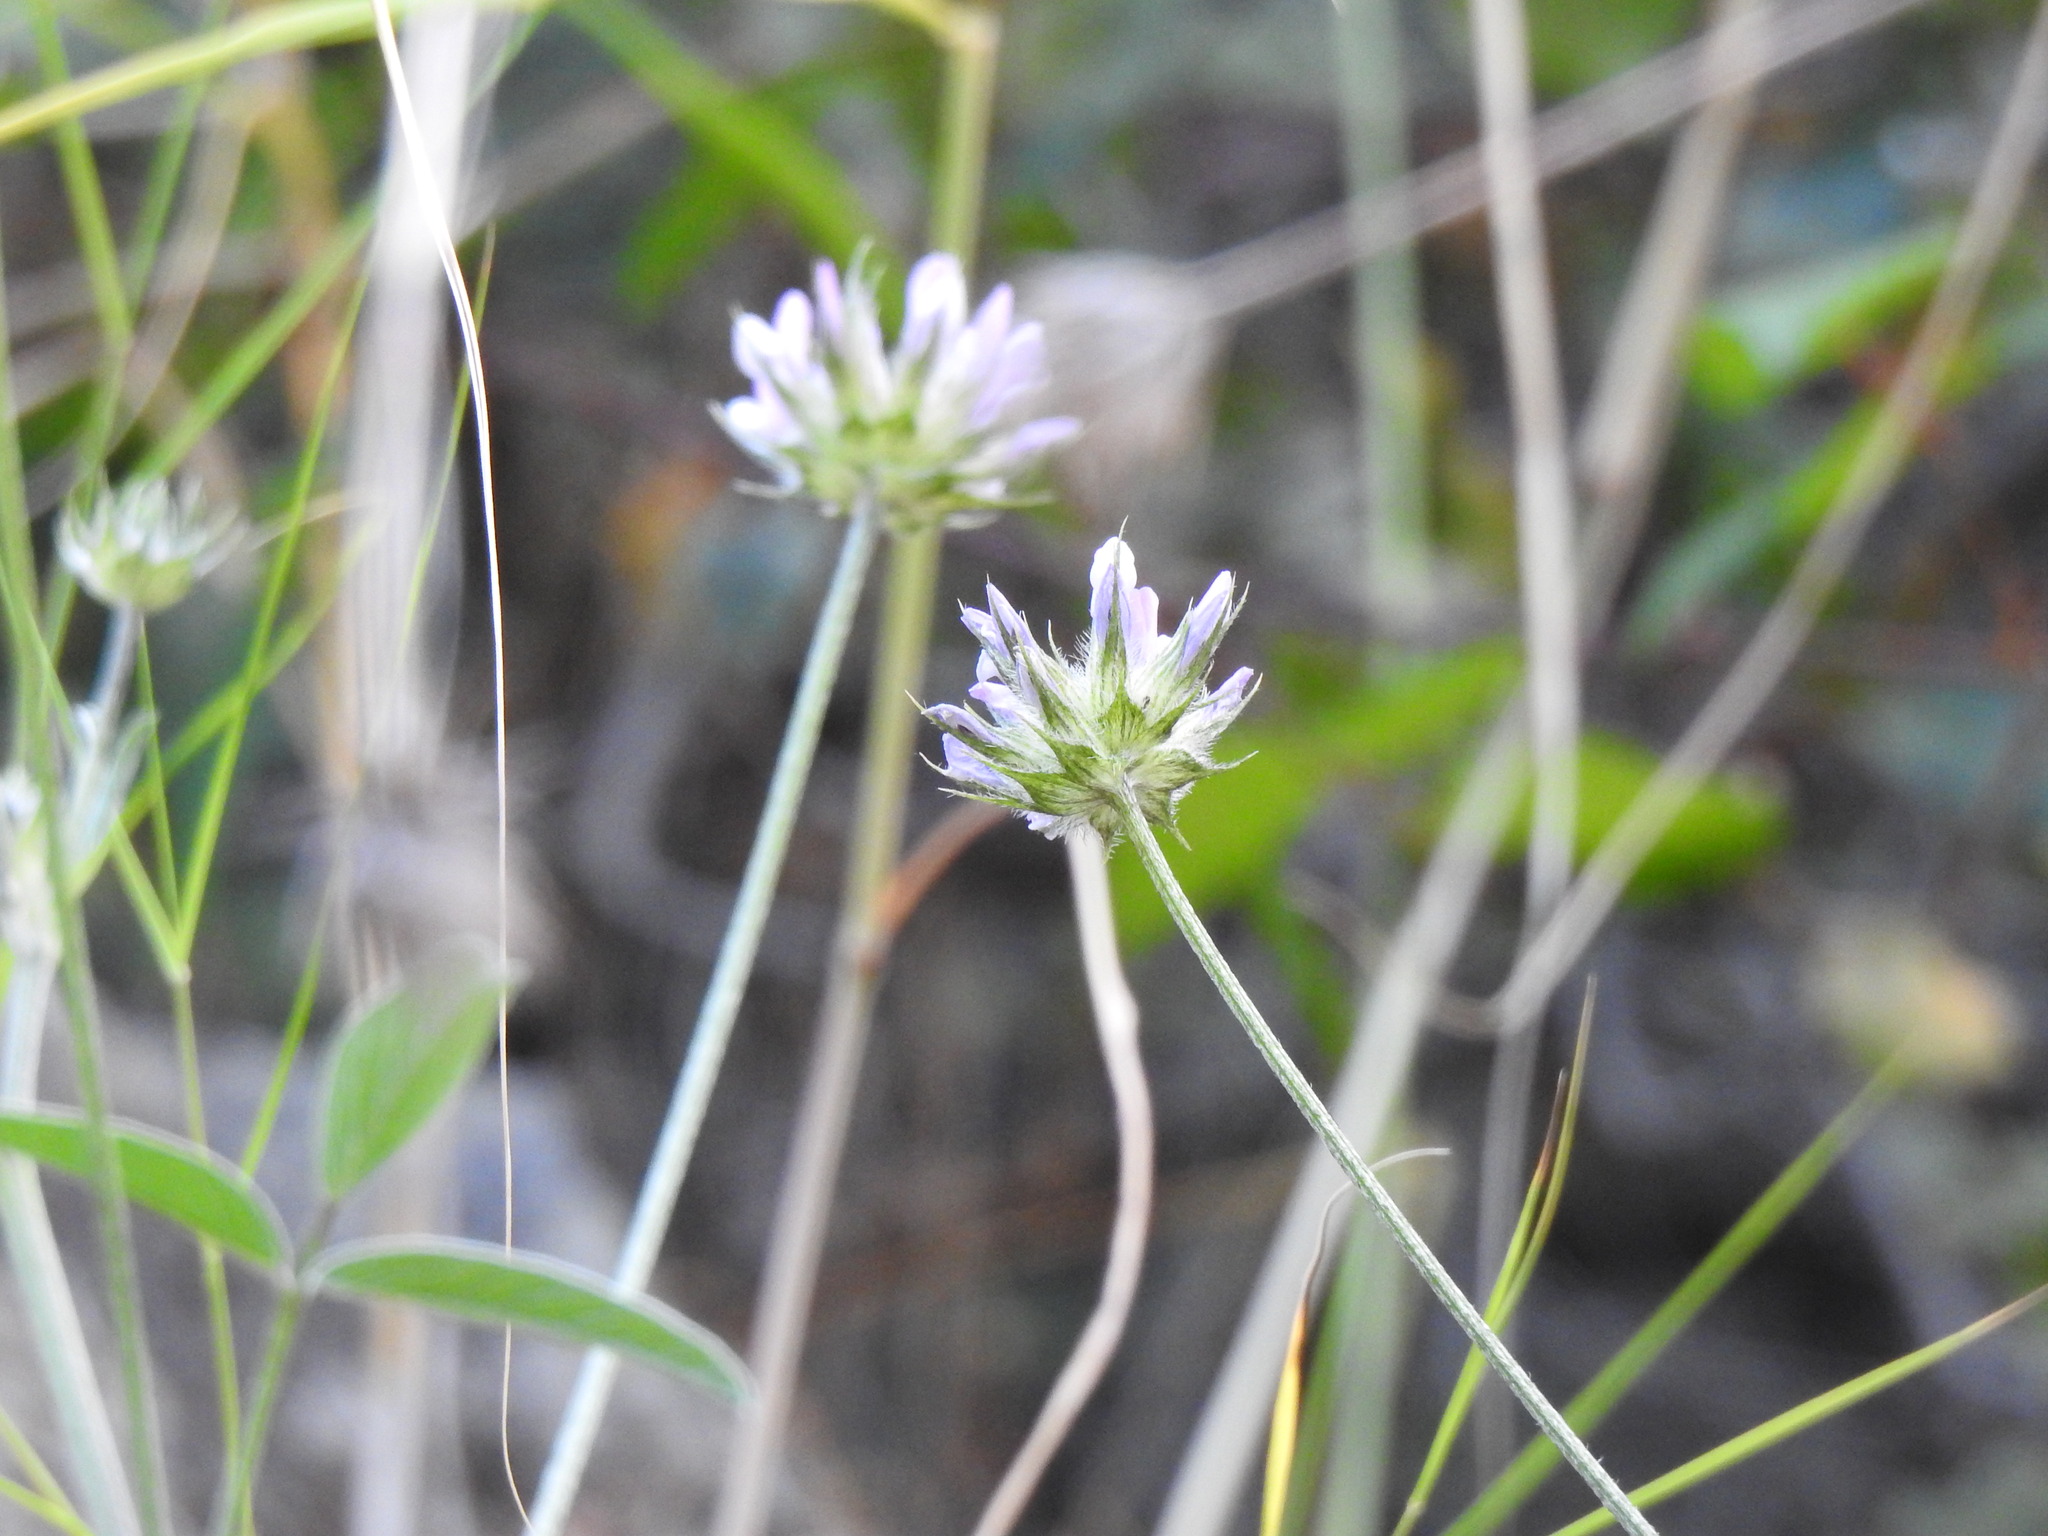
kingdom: Plantae
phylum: Tracheophyta
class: Magnoliopsida
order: Fabales
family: Fabaceae
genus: Bituminaria
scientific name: Bituminaria bituminosa
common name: Arabian pea
